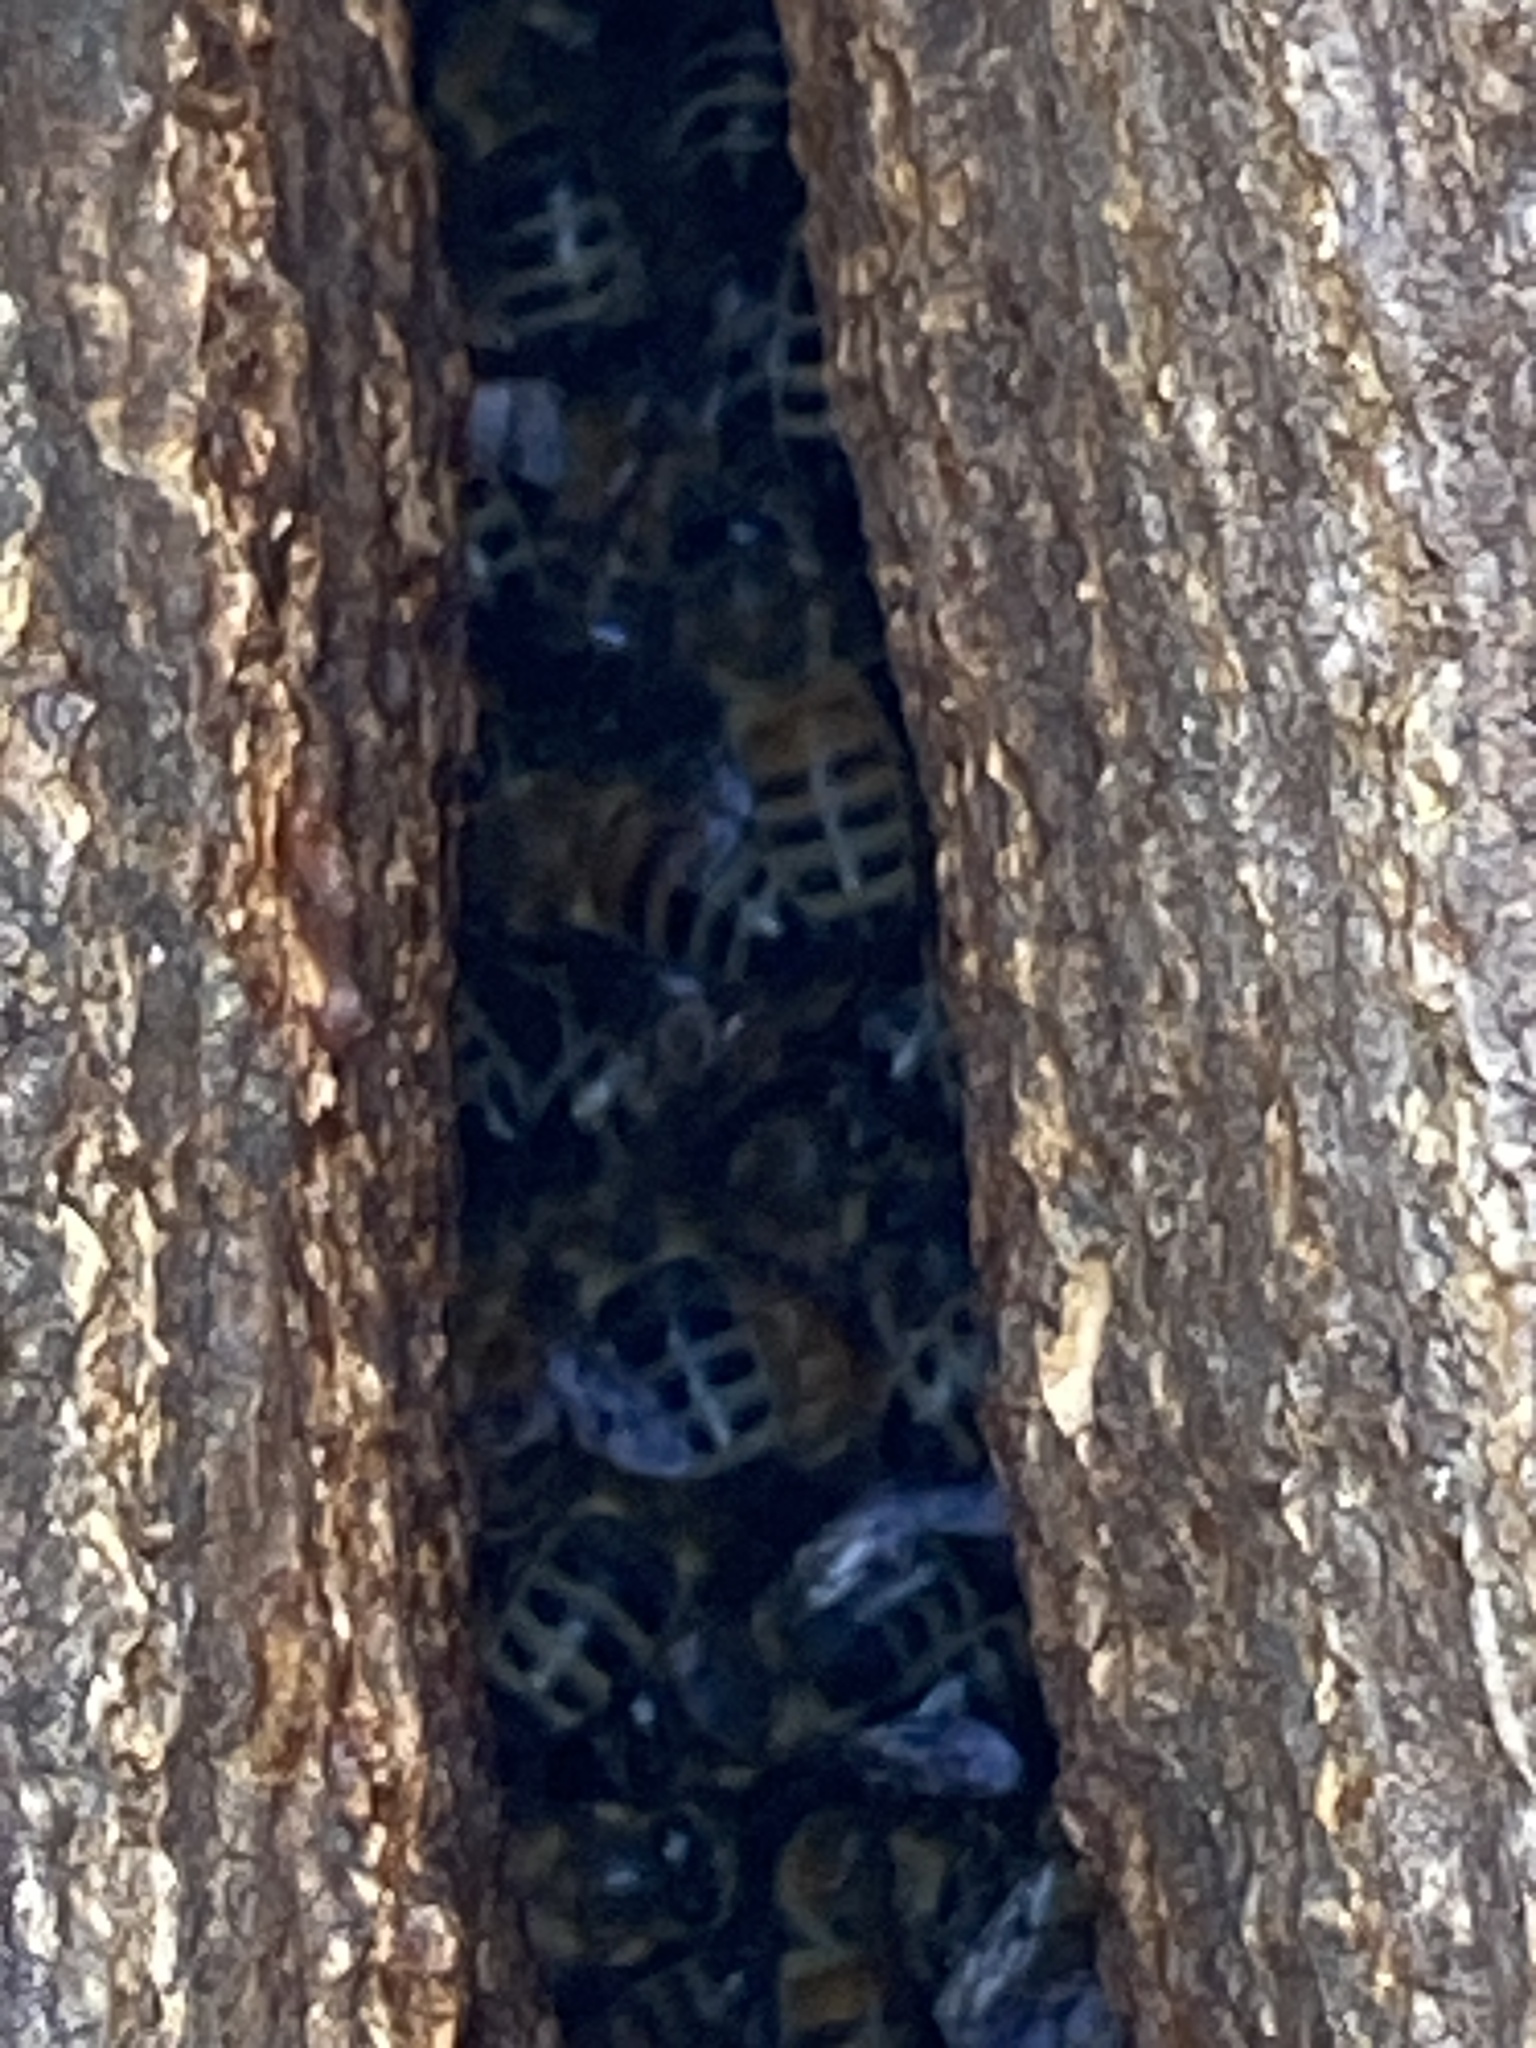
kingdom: Animalia
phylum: Arthropoda
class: Insecta
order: Hymenoptera
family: Apidae
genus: Apis
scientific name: Apis mellifera
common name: Honey bee
